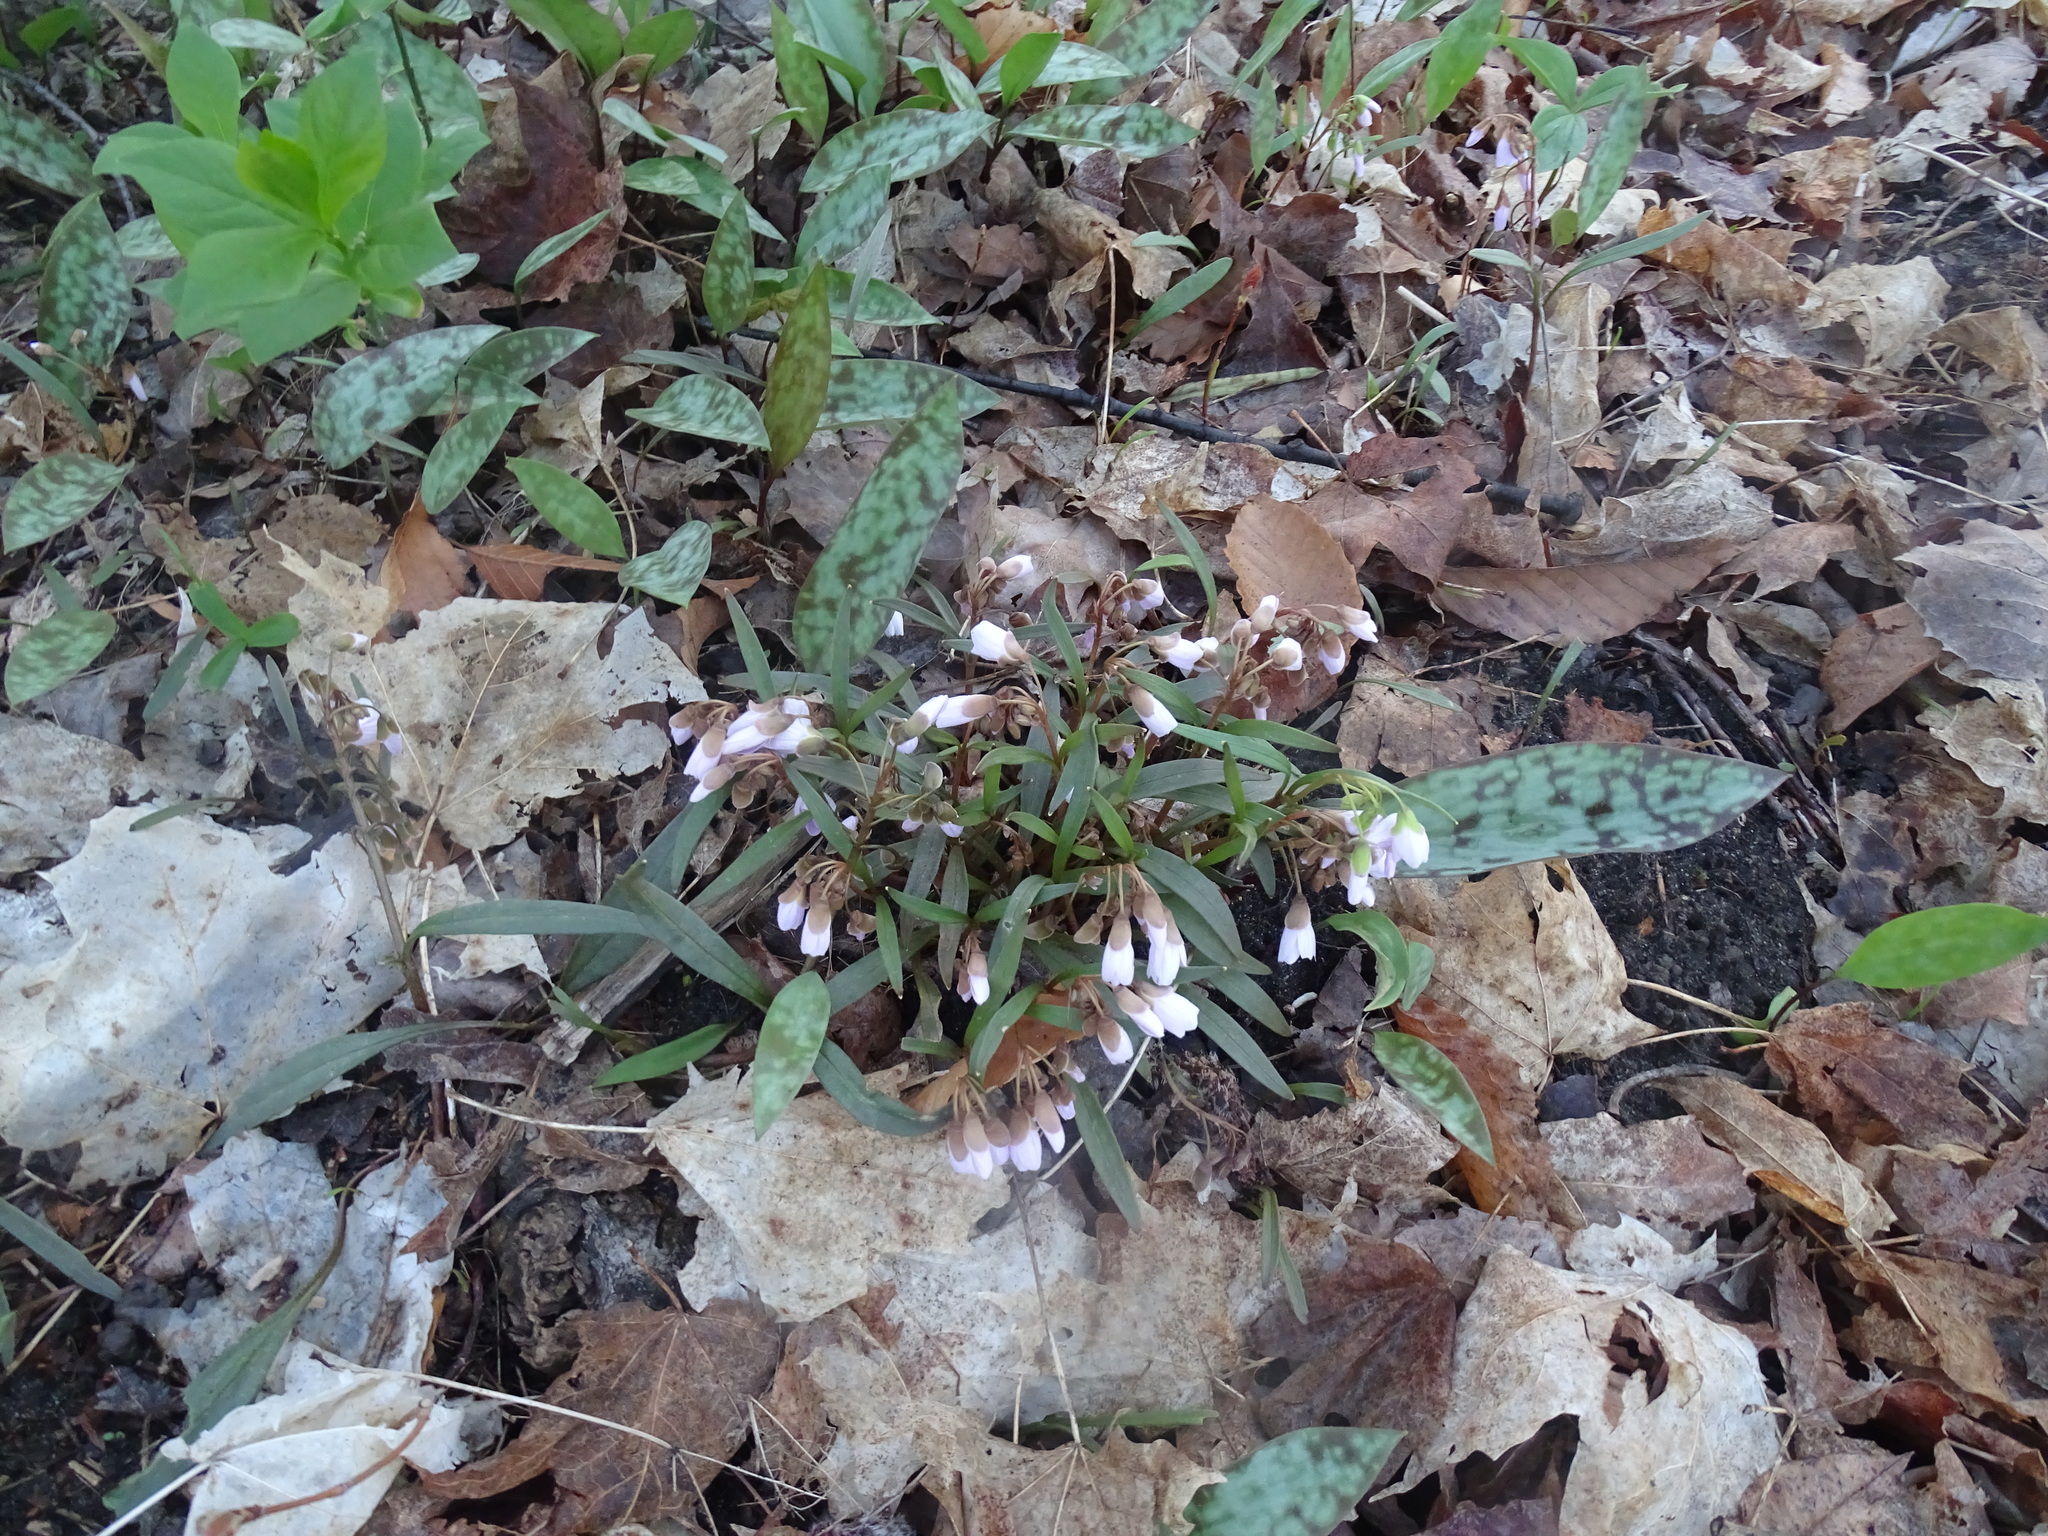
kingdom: Plantae
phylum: Tracheophyta
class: Magnoliopsida
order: Caryophyllales
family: Montiaceae
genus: Claytonia
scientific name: Claytonia virginica
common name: Virginia springbeauty
